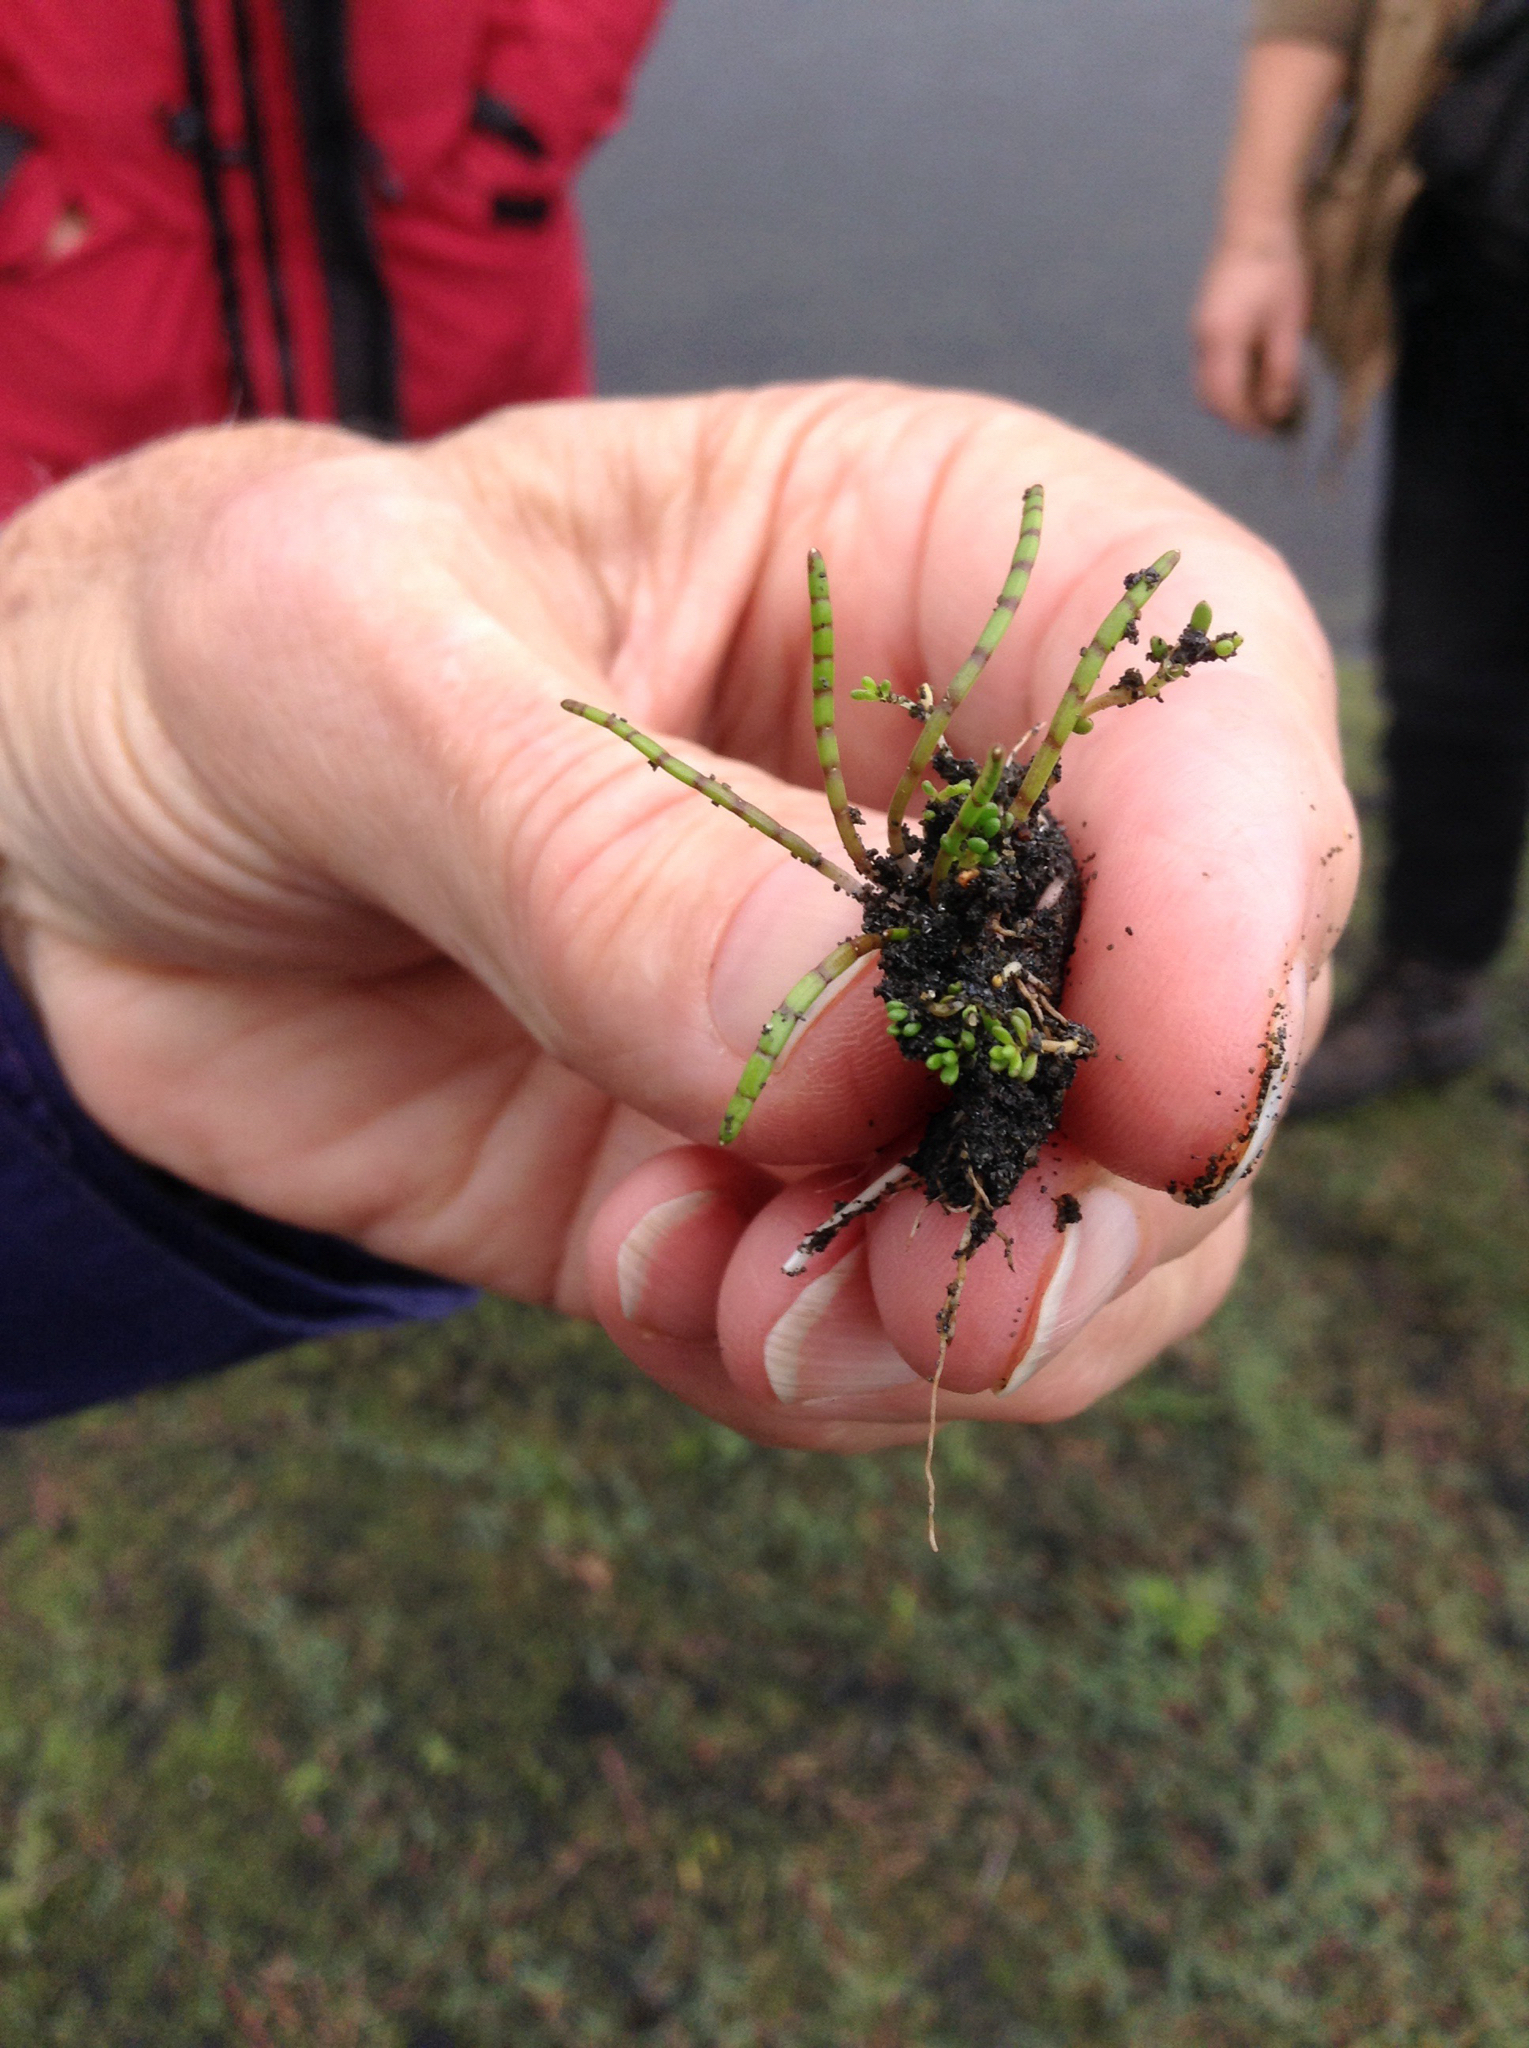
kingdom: Plantae
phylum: Tracheophyta
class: Magnoliopsida
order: Apiales
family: Apiaceae
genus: Lilaeopsis
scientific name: Lilaeopsis novae-zelandiae
